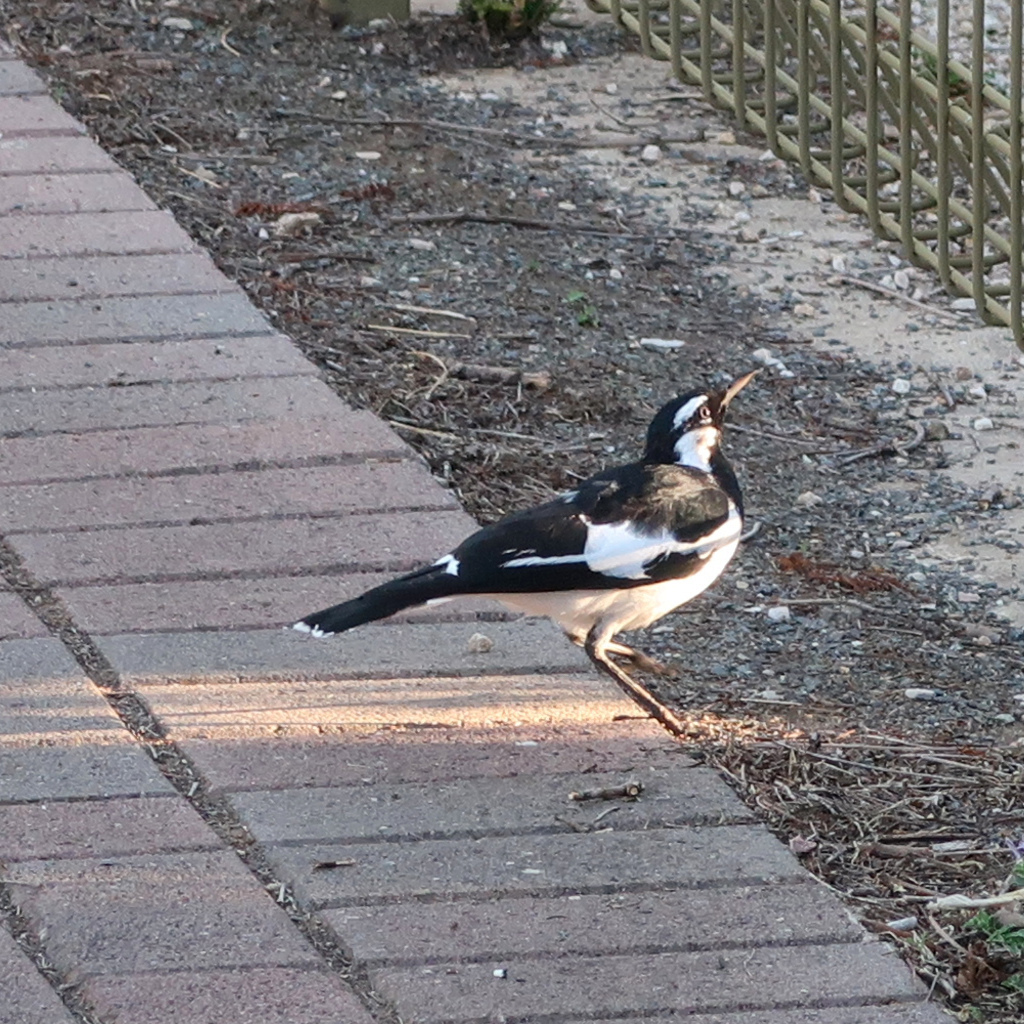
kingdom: Animalia
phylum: Chordata
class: Aves
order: Passeriformes
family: Monarchidae
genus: Grallina
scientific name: Grallina cyanoleuca
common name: Magpie-lark
